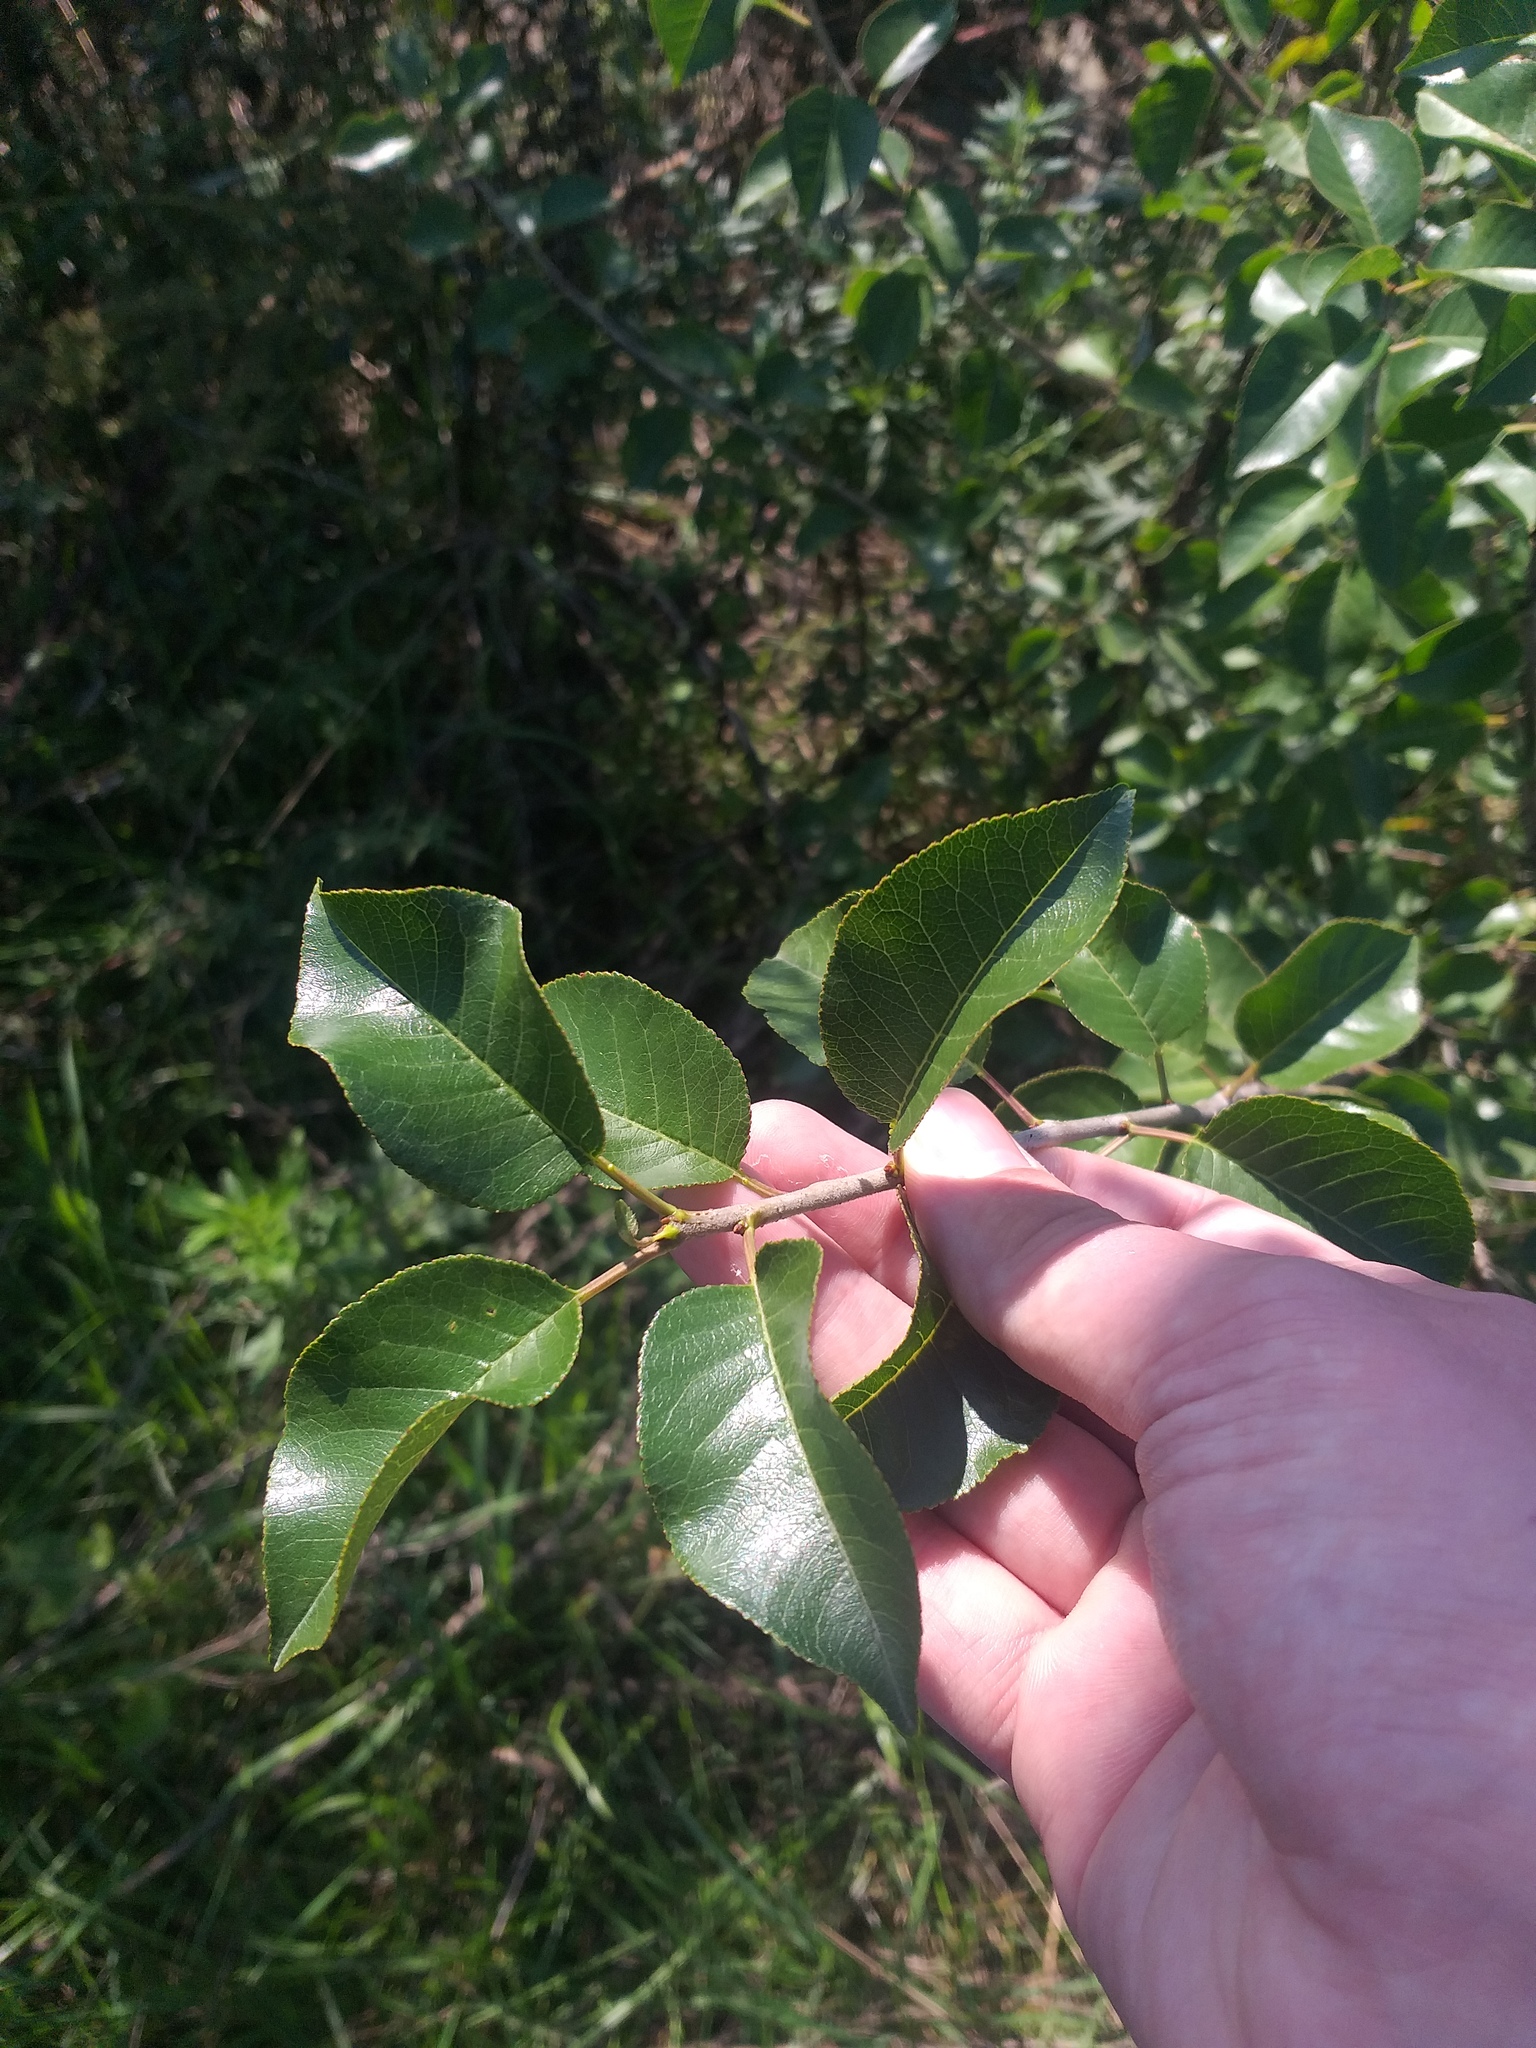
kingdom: Plantae
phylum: Tracheophyta
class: Magnoliopsida
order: Rosales
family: Rosaceae
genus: Pyrus
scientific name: Pyrus communis
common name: Pear
